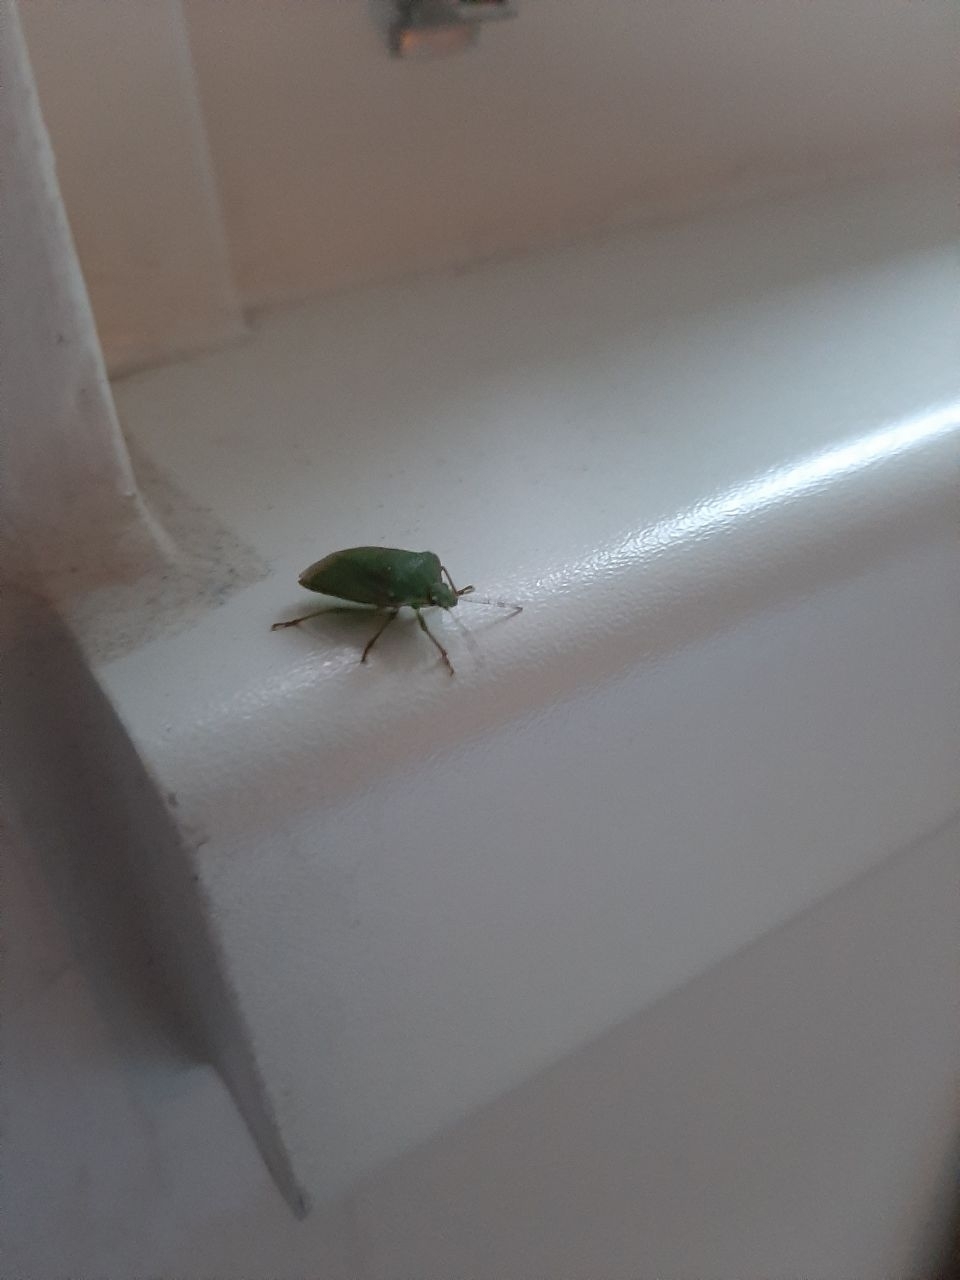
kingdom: Animalia
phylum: Arthropoda
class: Insecta
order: Hemiptera
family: Pentatomidae
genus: Nezara
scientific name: Nezara viridula
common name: Southern green stink bug
